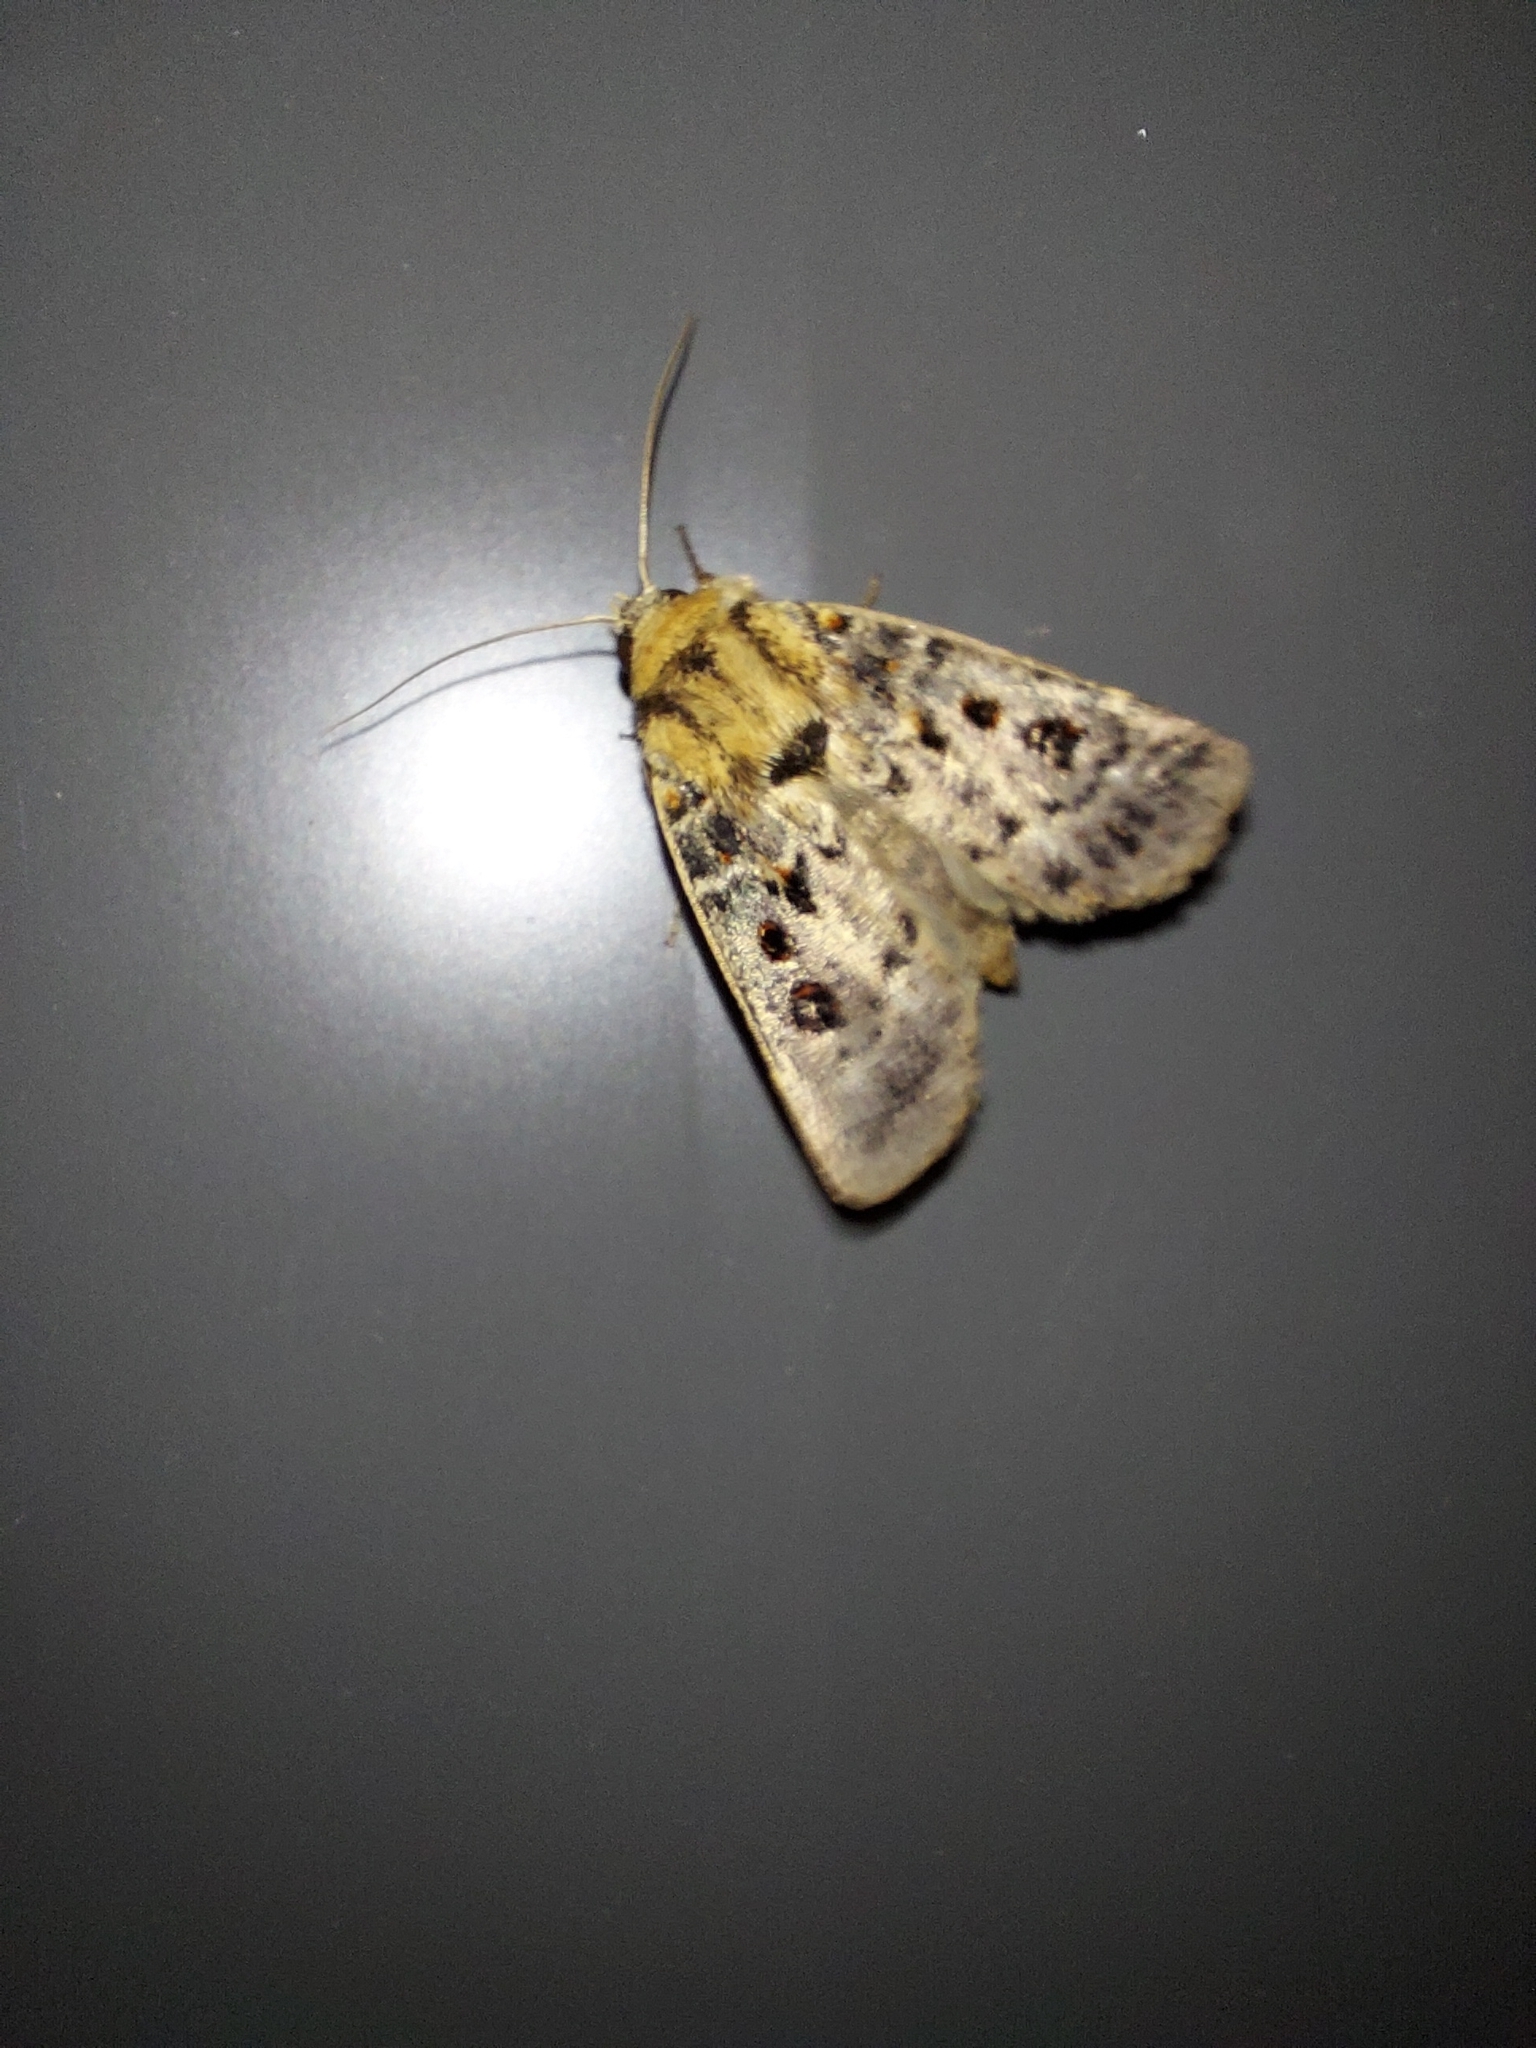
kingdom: Animalia
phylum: Arthropoda
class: Insecta
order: Lepidoptera
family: Noctuidae
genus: Proteuxoa
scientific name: Proteuxoa sanguinipuncta
